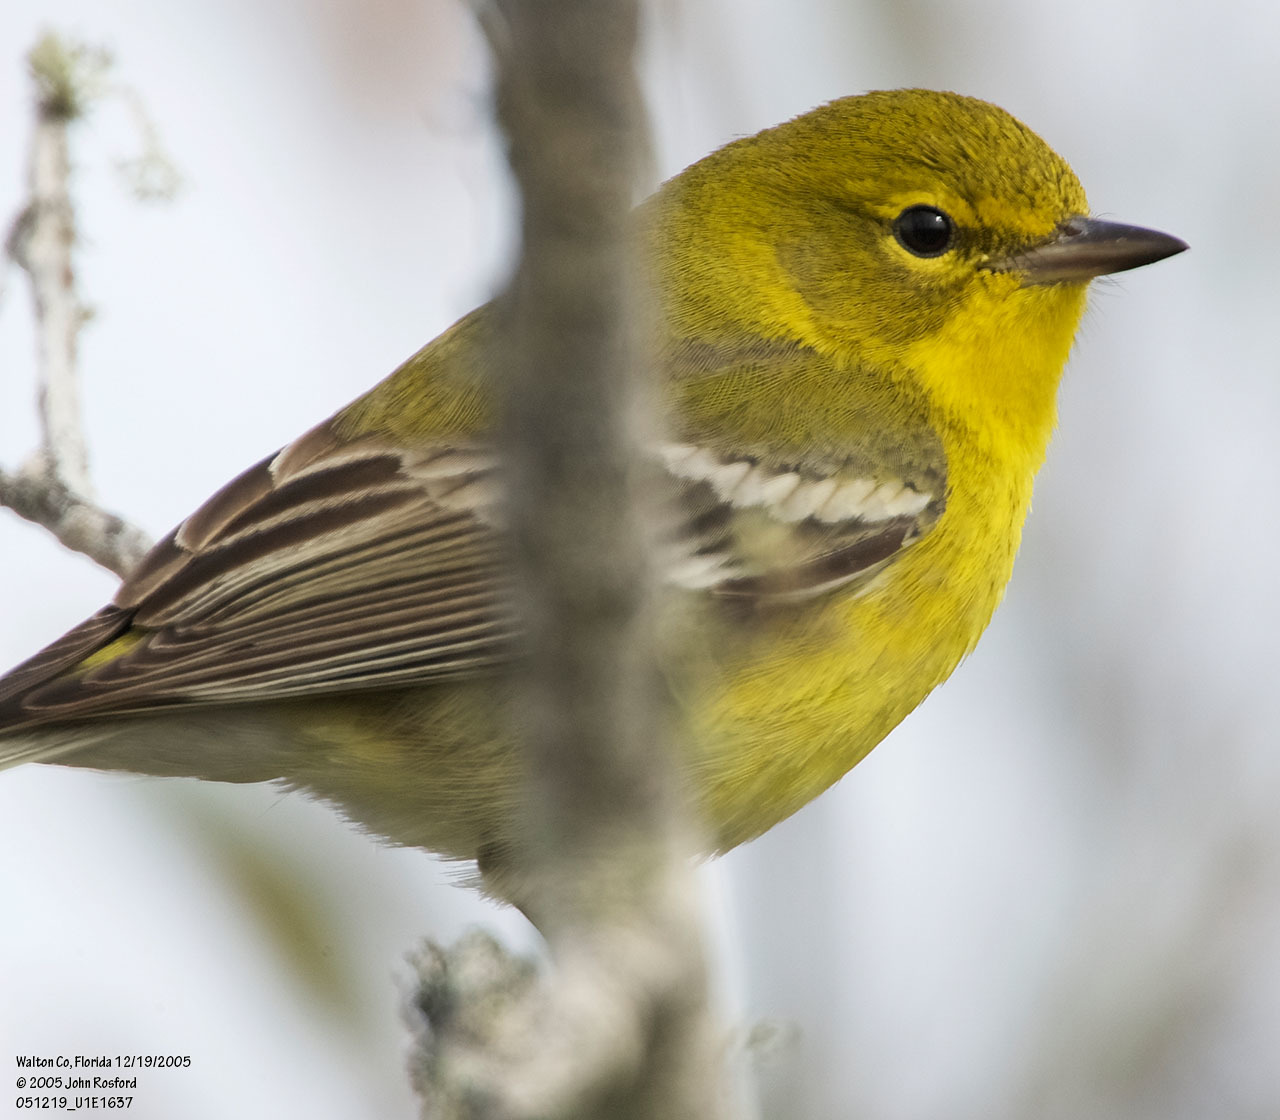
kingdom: Animalia
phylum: Chordata
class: Aves
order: Passeriformes
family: Parulidae
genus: Setophaga
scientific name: Setophaga pinus
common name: Pine warbler
